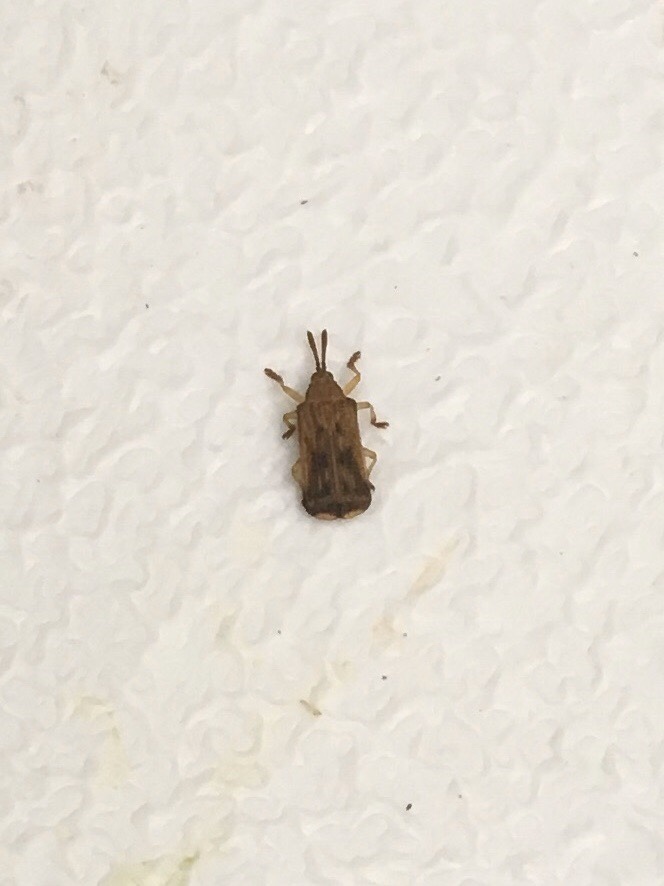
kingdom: Animalia
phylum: Arthropoda
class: Insecta
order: Coleoptera
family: Chrysomelidae
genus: Baliosus
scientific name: Baliosus nervosus
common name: Basswood leaf miner
